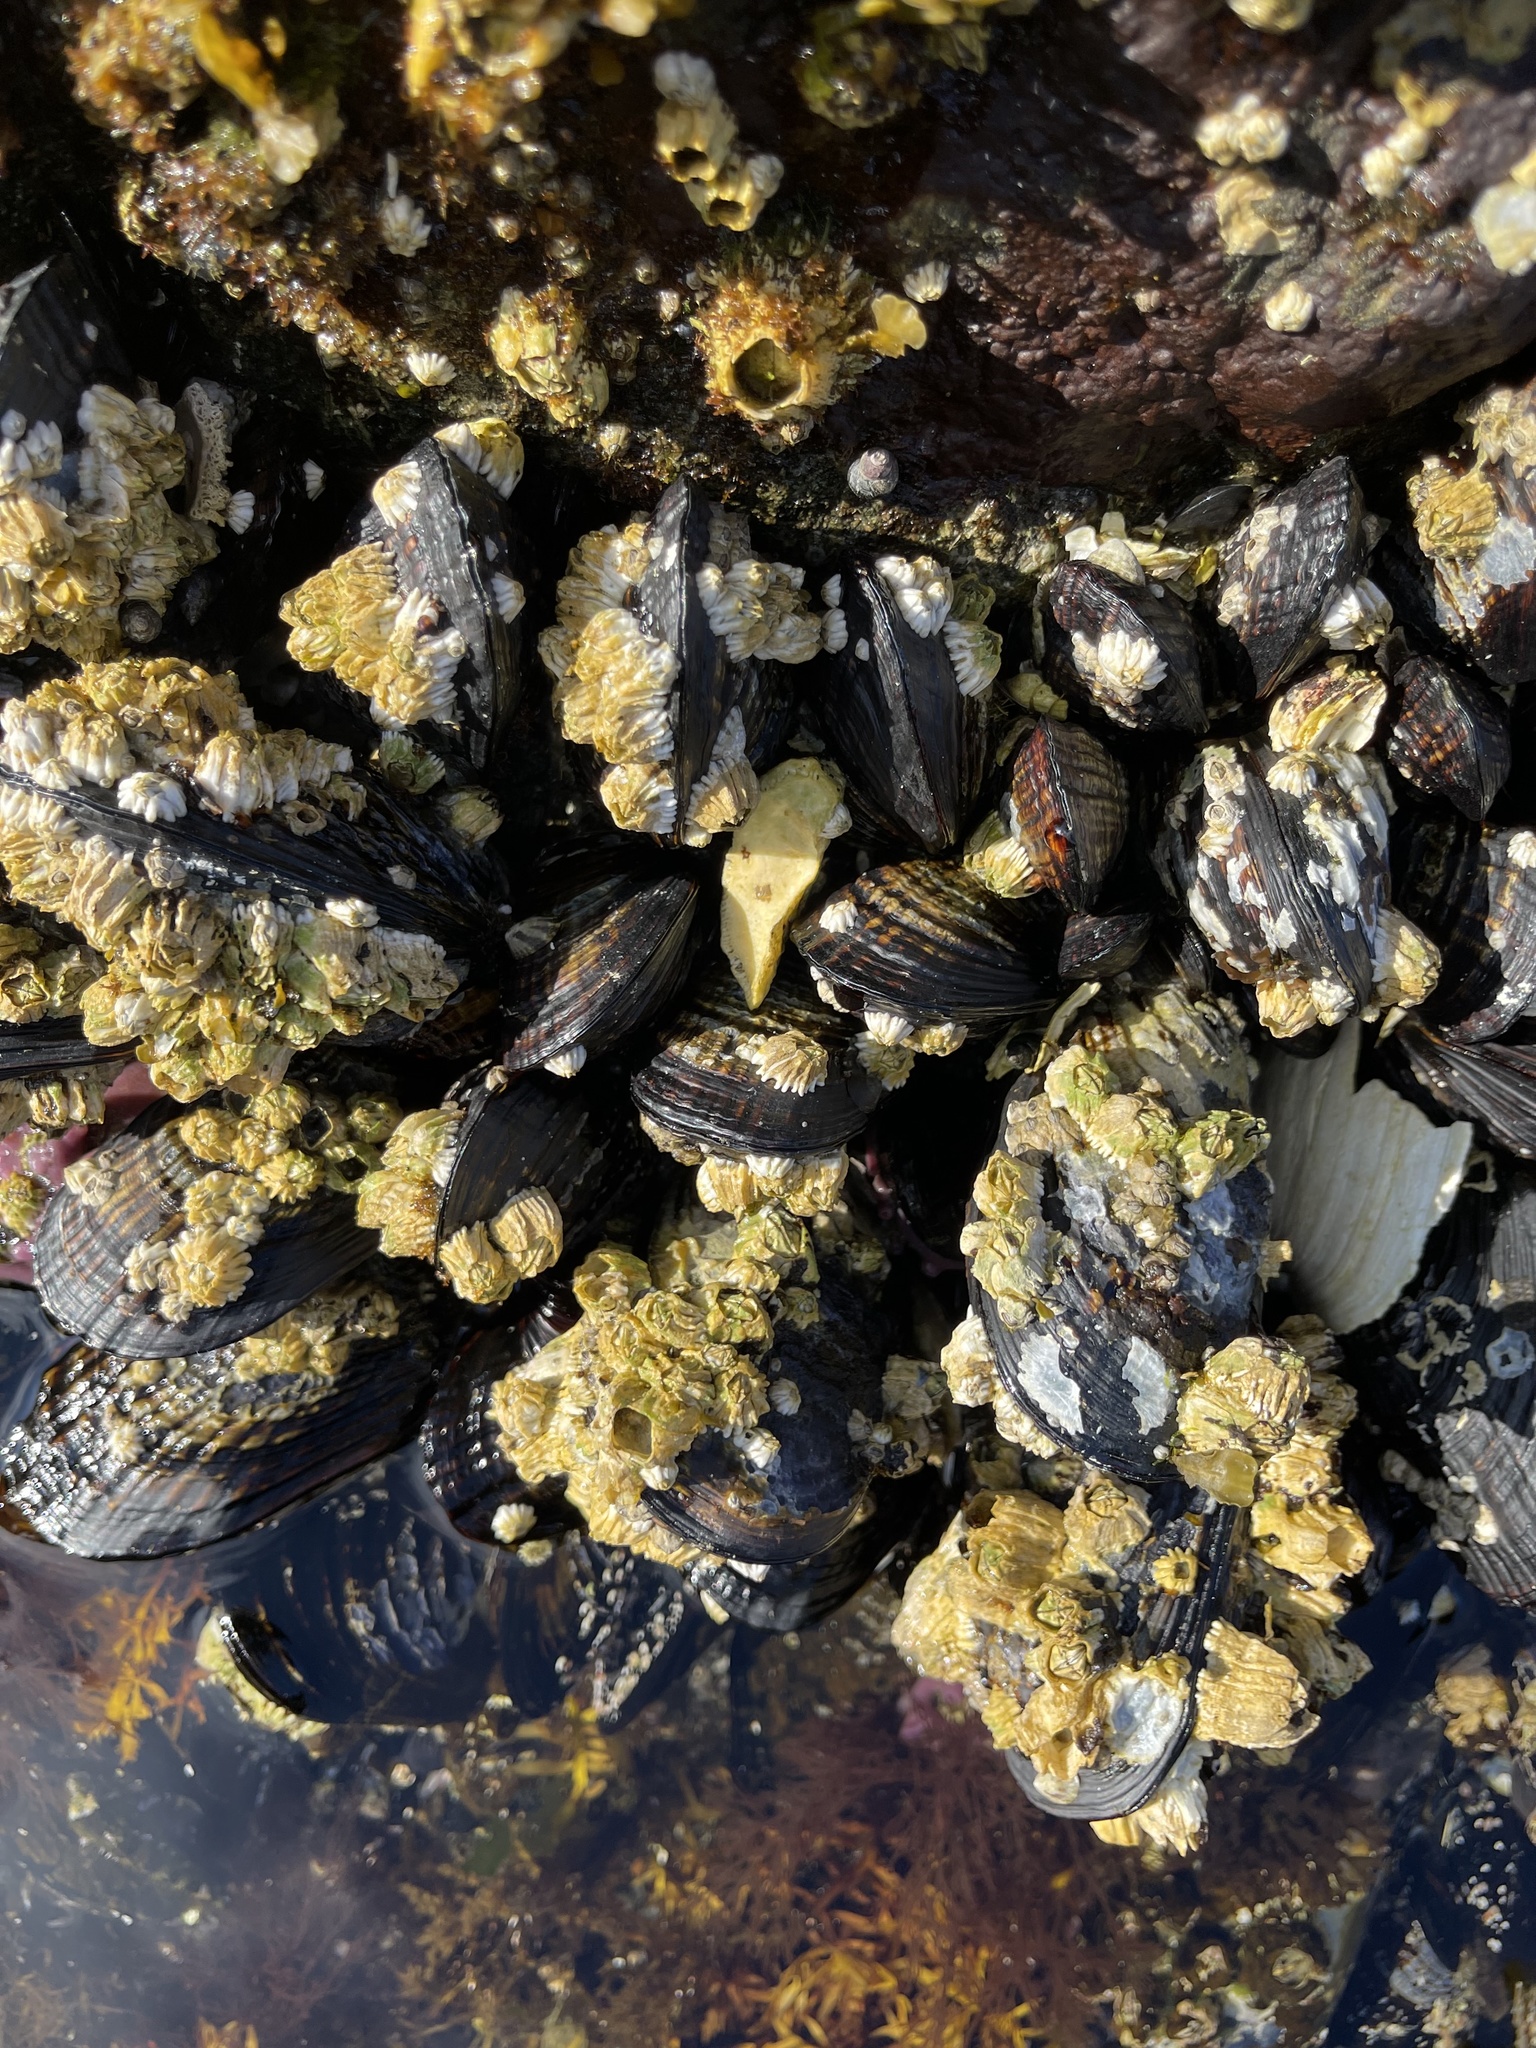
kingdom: Animalia
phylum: Mollusca
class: Bivalvia
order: Mytilida
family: Mytilidae
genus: Mytilus
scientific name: Mytilus californianus
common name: California mussel
